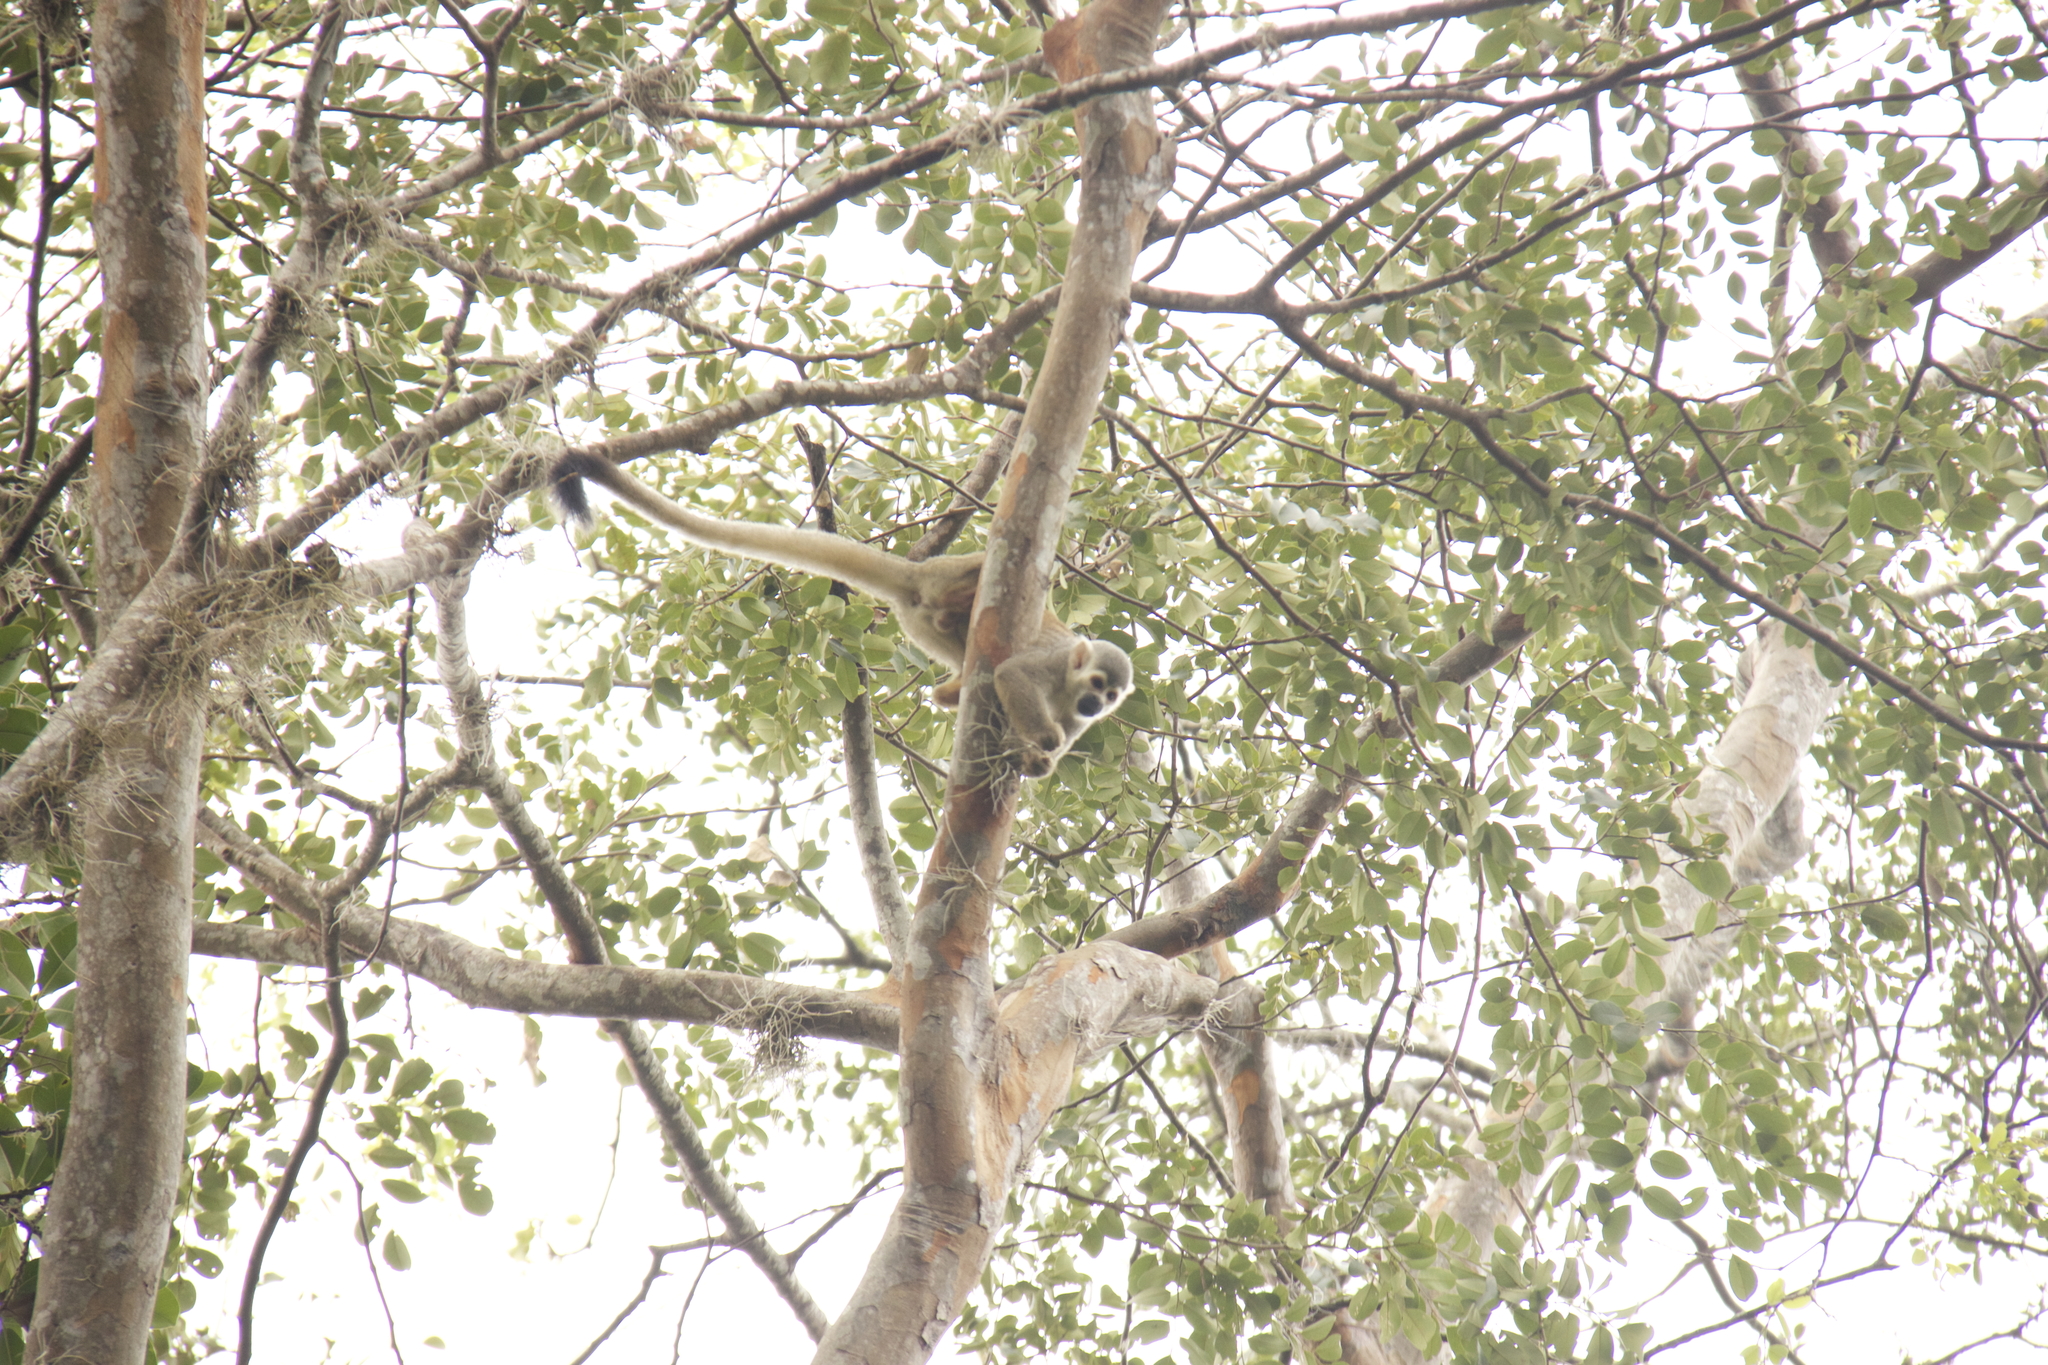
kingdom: Animalia
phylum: Chordata
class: Mammalia
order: Primates
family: Cebidae
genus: Saimiri
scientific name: Saimiri cassiquiarensis
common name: Humboldt’s squirrel monkey
